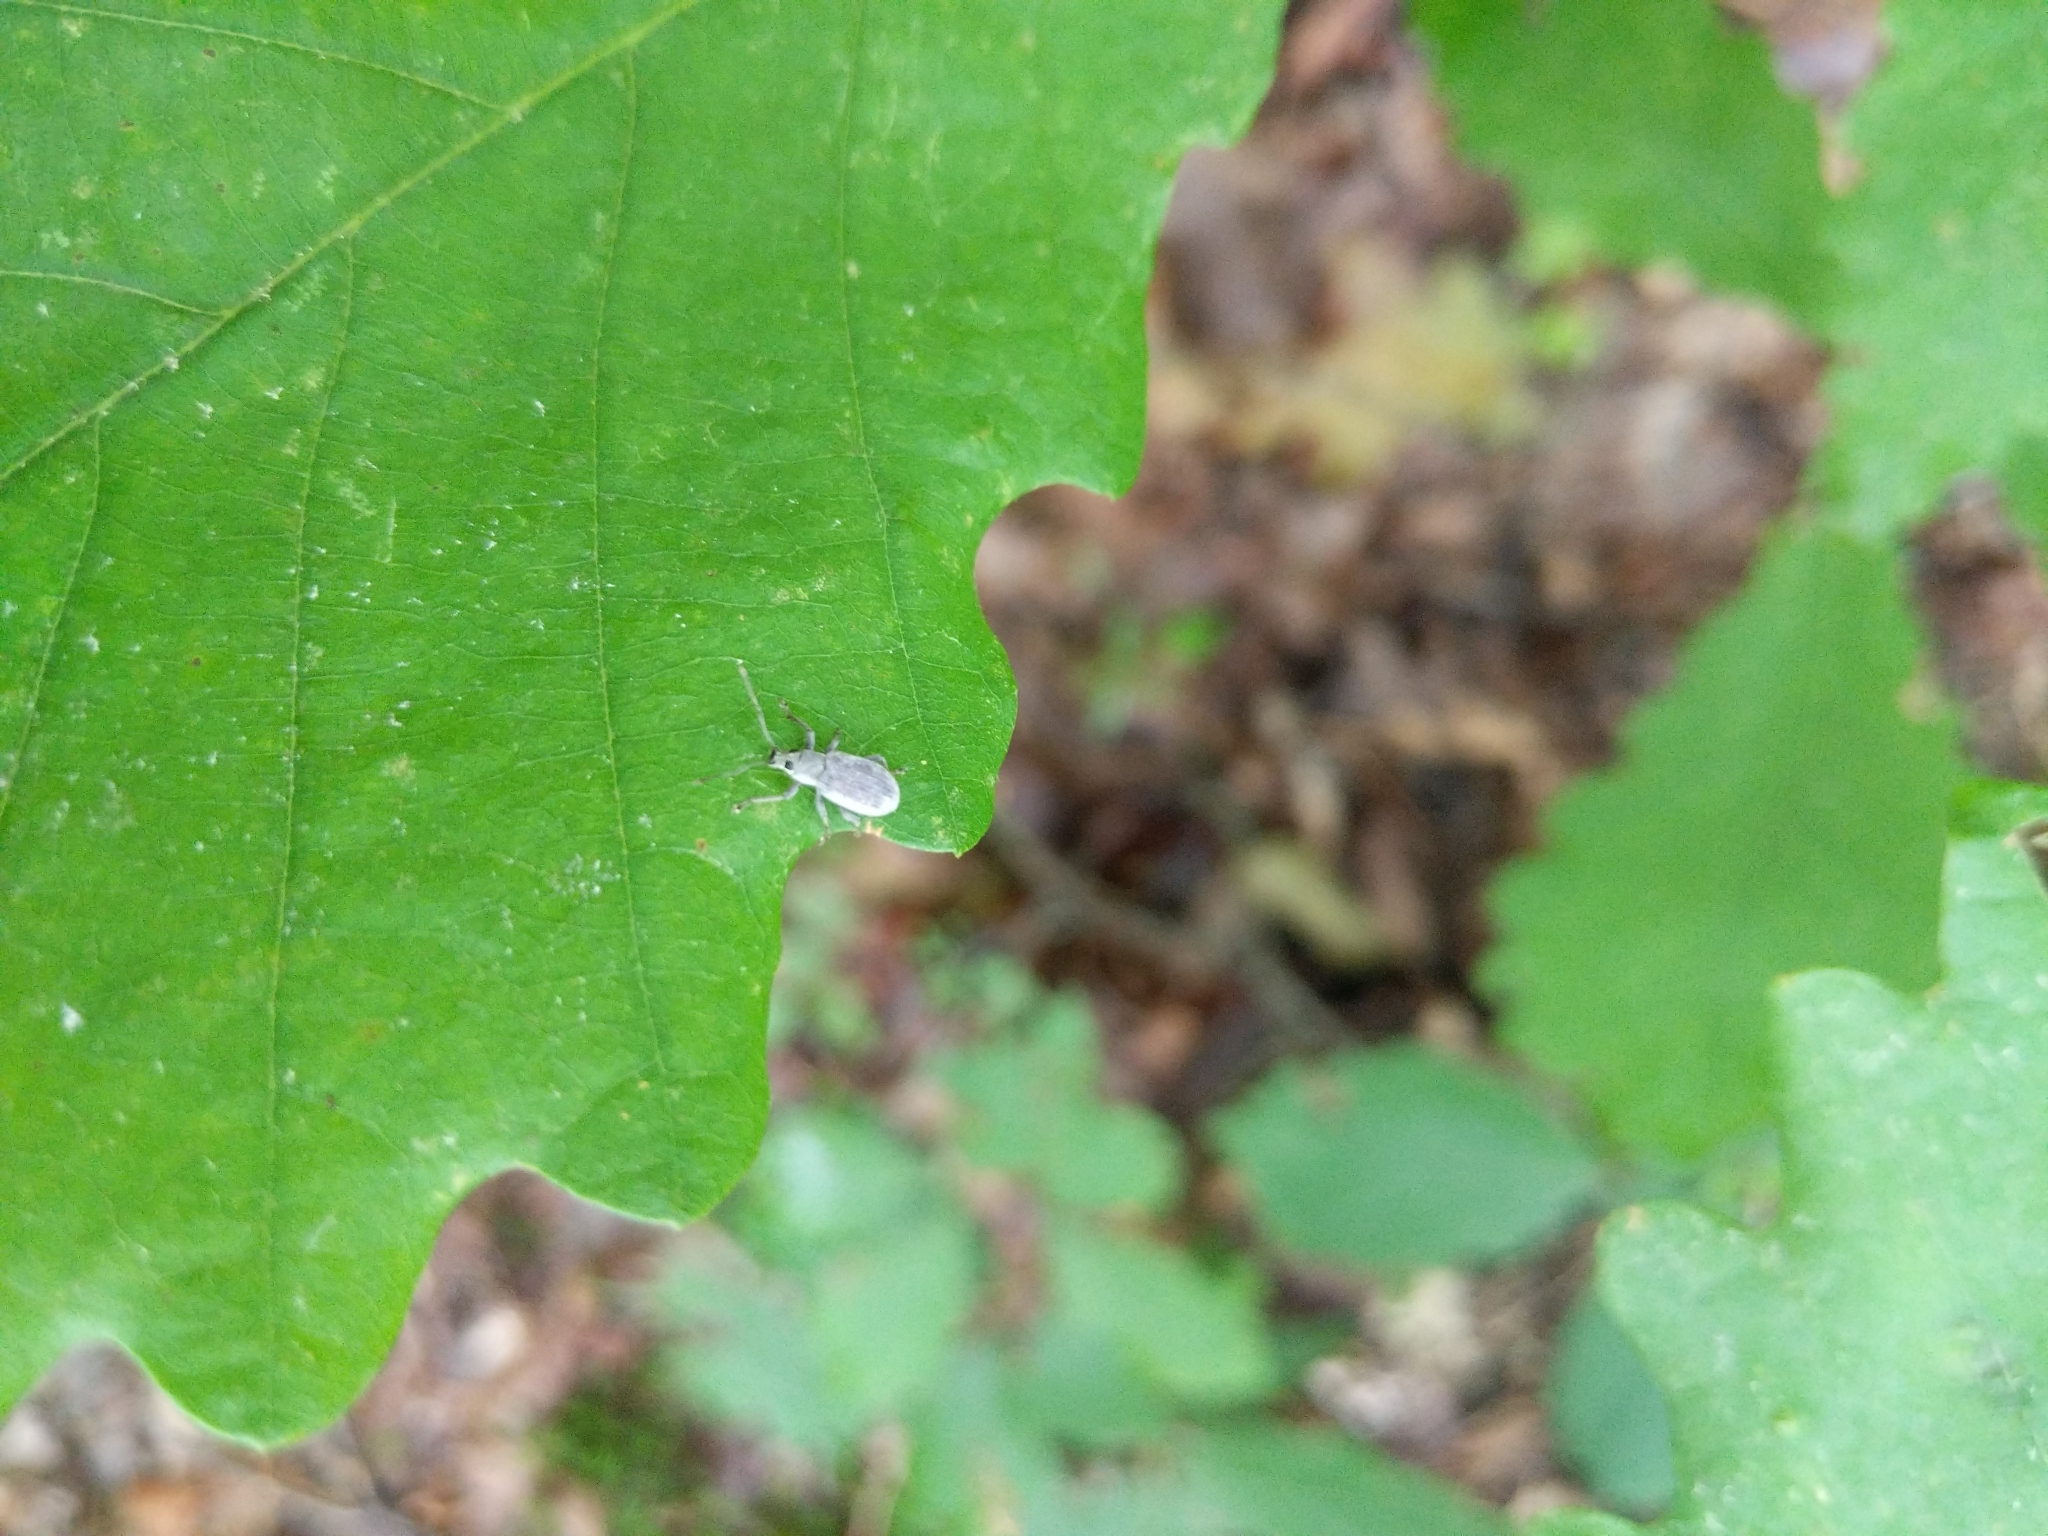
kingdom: Animalia
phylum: Arthropoda
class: Insecta
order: Coleoptera
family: Curculionidae
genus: Cyrtepistomus
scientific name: Cyrtepistomus castaneus
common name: Weevil
